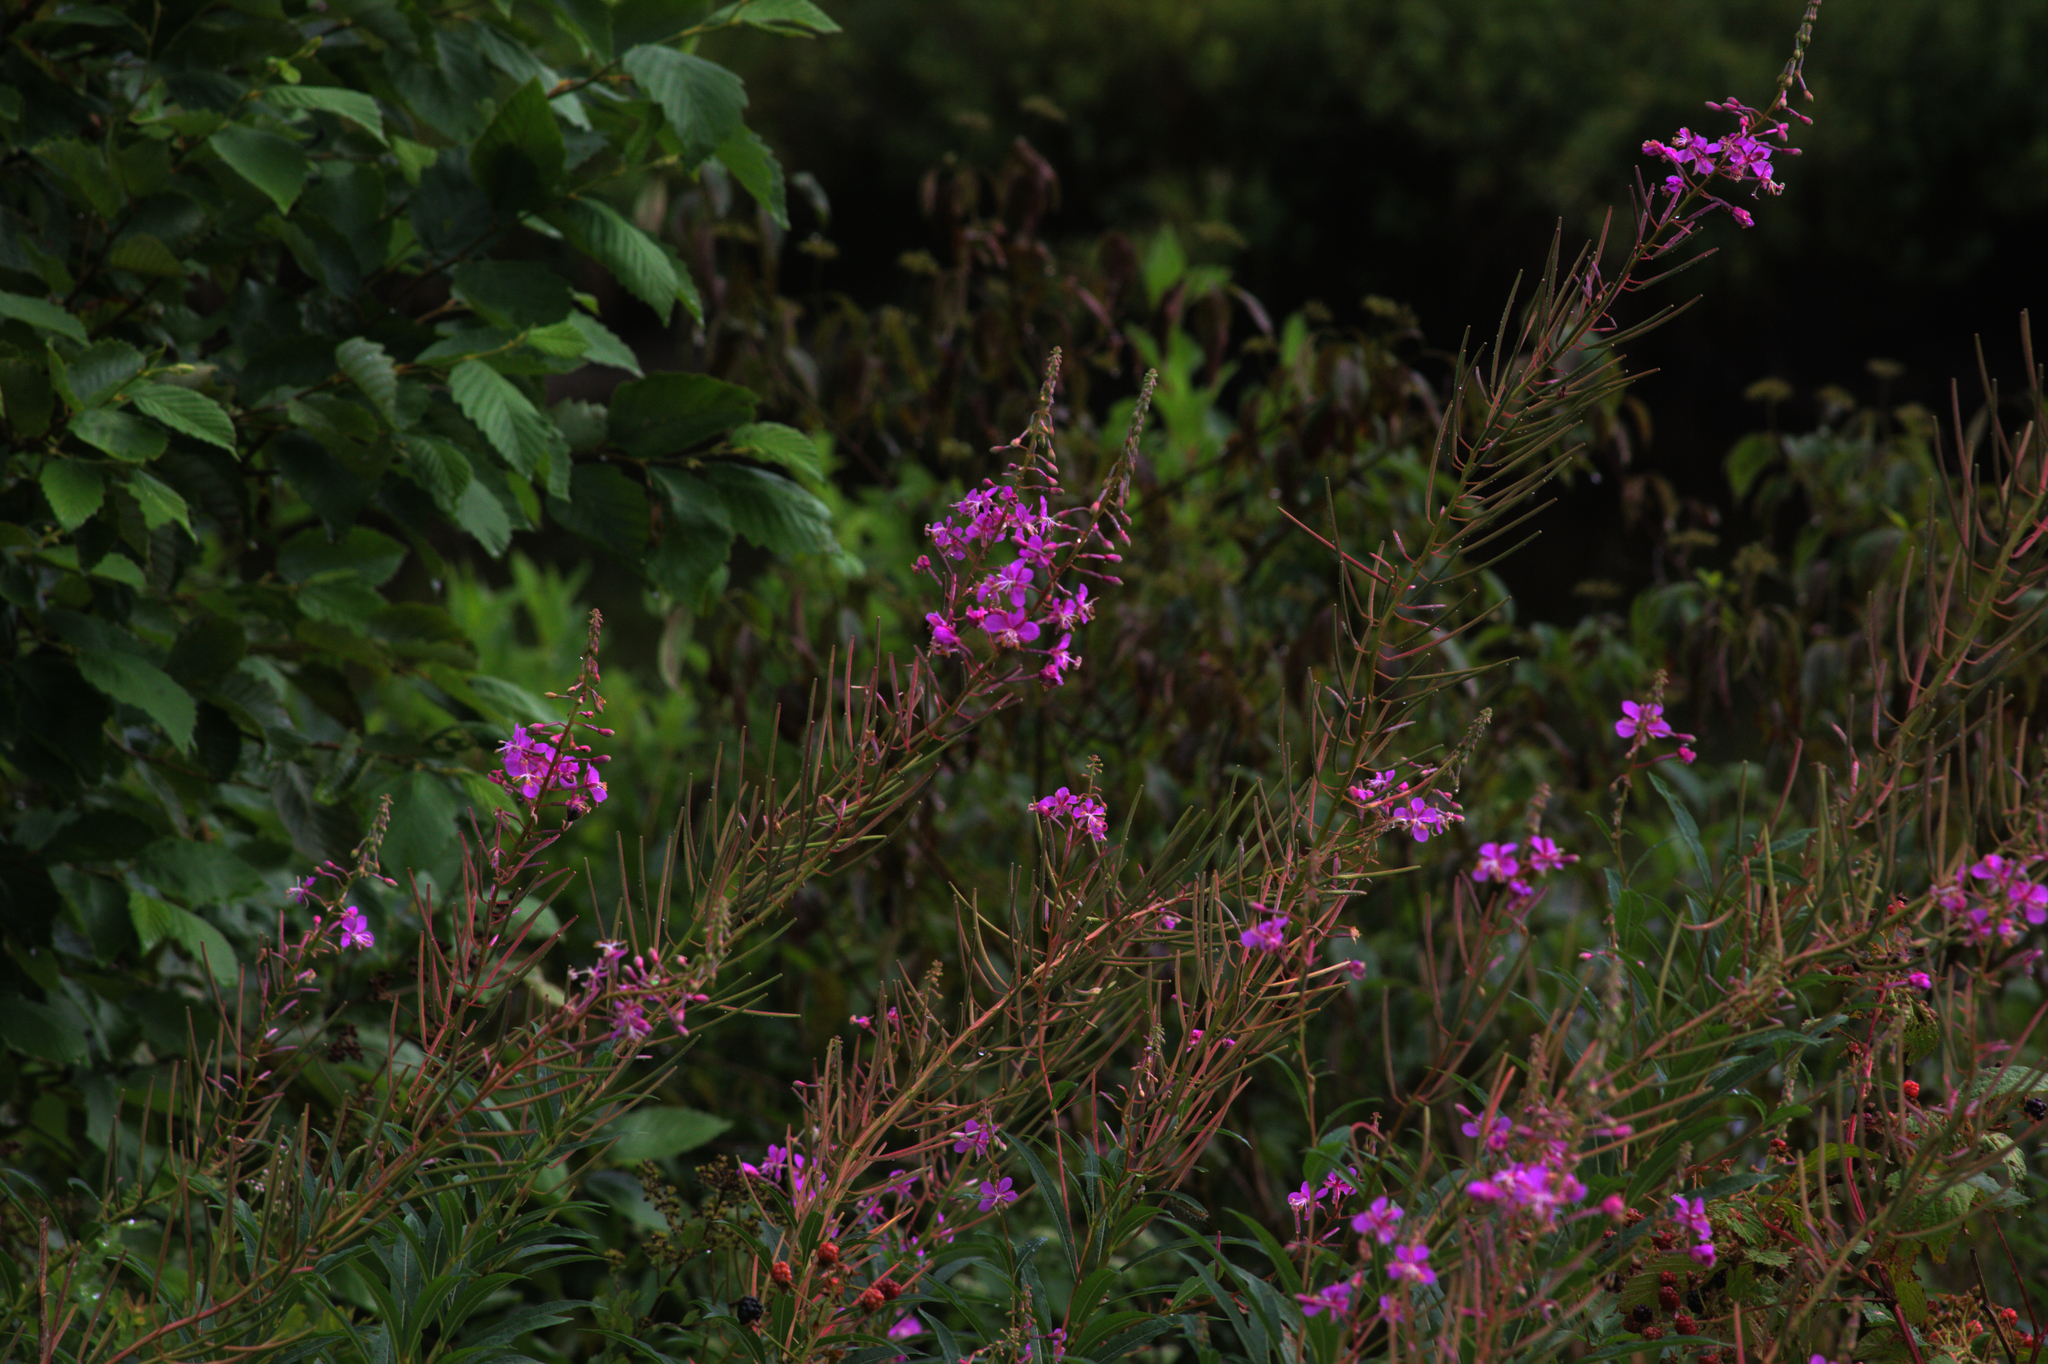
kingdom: Plantae
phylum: Tracheophyta
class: Magnoliopsida
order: Myrtales
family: Onagraceae
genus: Chamaenerion
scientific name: Chamaenerion angustifolium
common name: Fireweed
